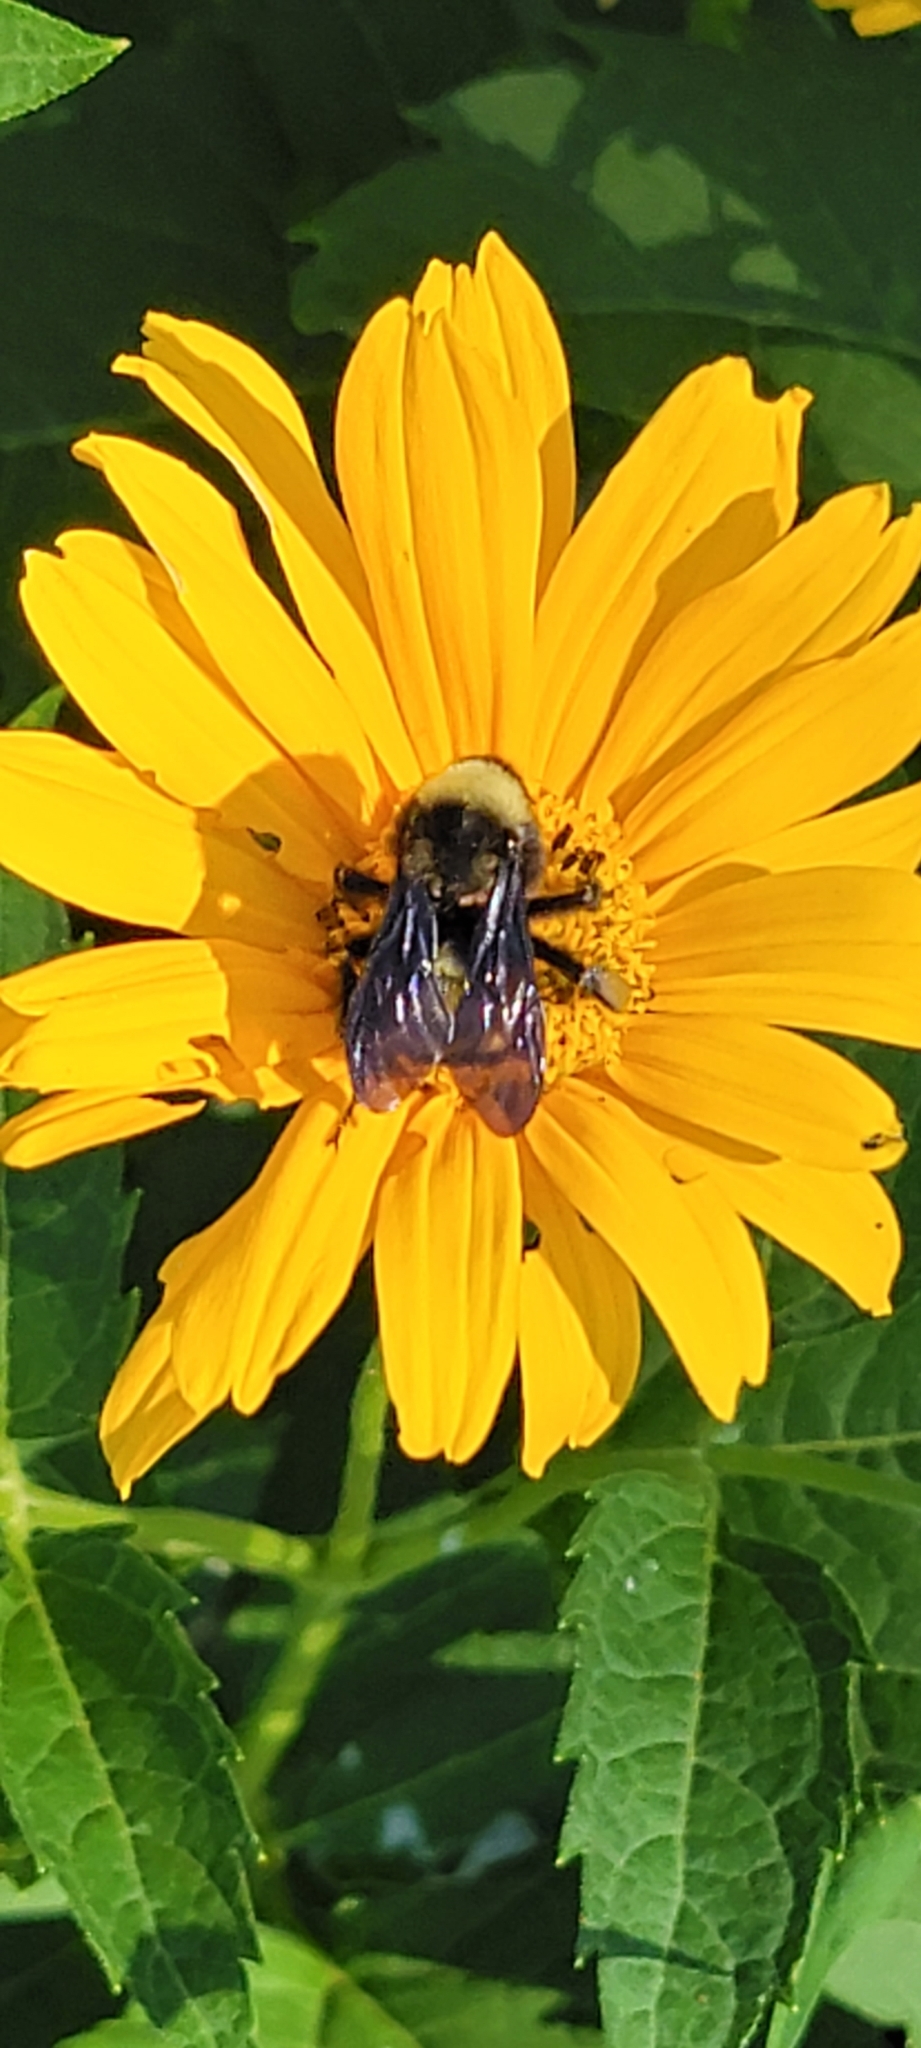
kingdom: Animalia
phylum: Arthropoda
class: Insecta
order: Hymenoptera
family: Apidae
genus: Bombus
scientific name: Bombus pensylvanicus
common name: Bumble bee
